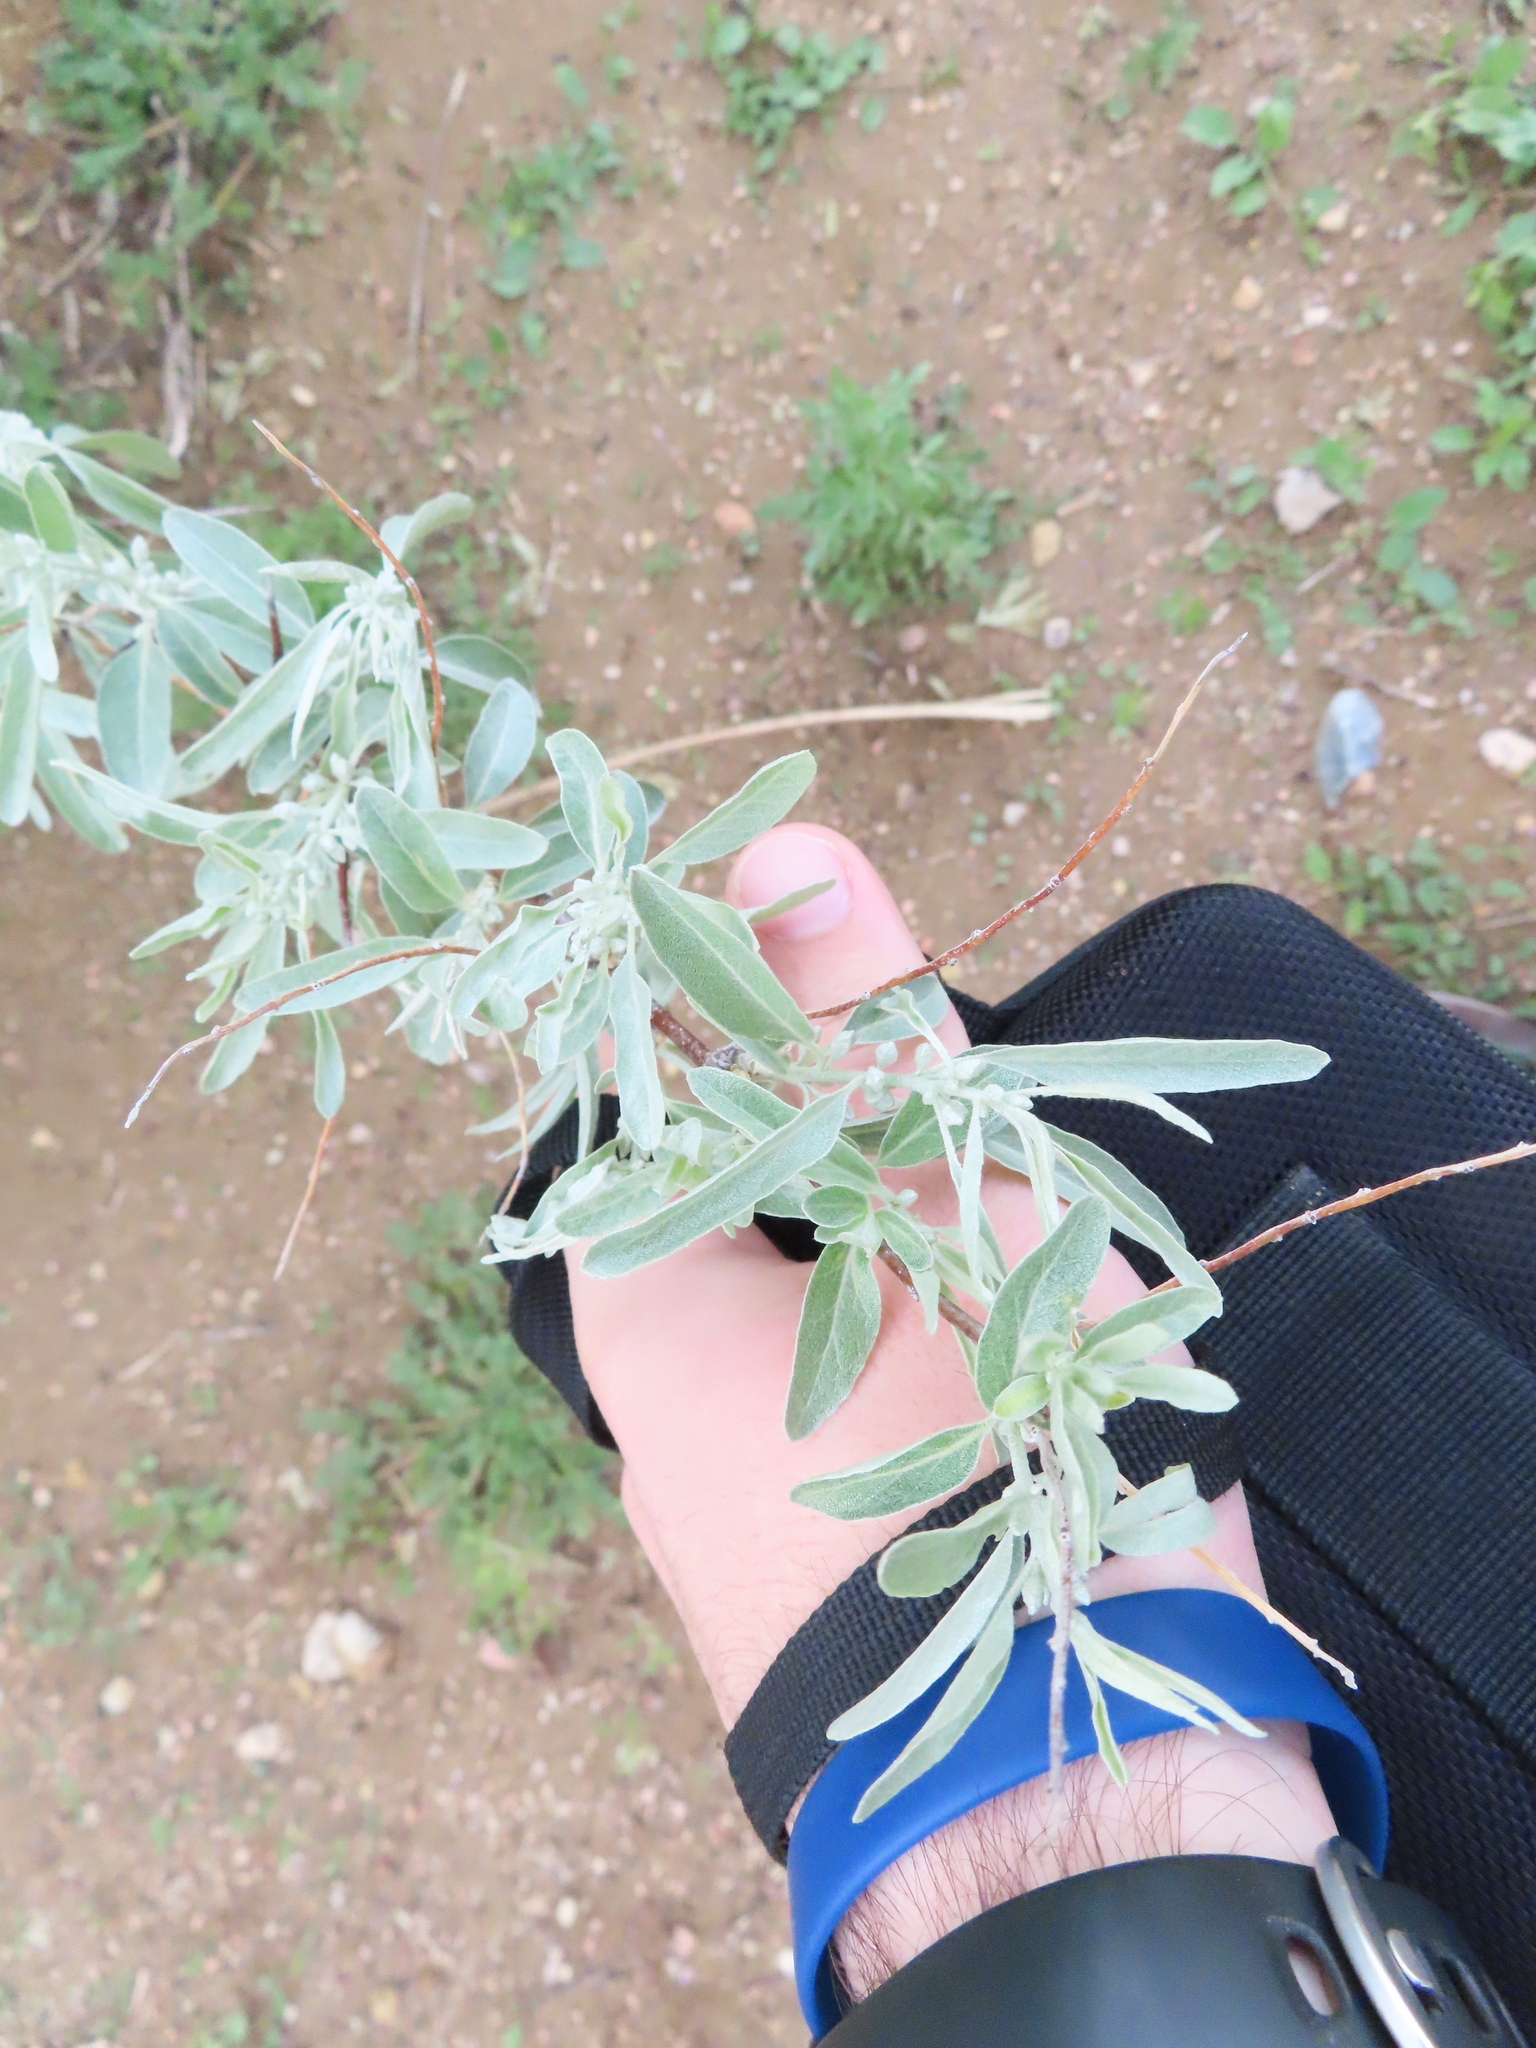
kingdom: Plantae
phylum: Tracheophyta
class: Magnoliopsida
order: Rosales
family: Elaeagnaceae
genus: Elaeagnus
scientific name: Elaeagnus angustifolia
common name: Russian olive
